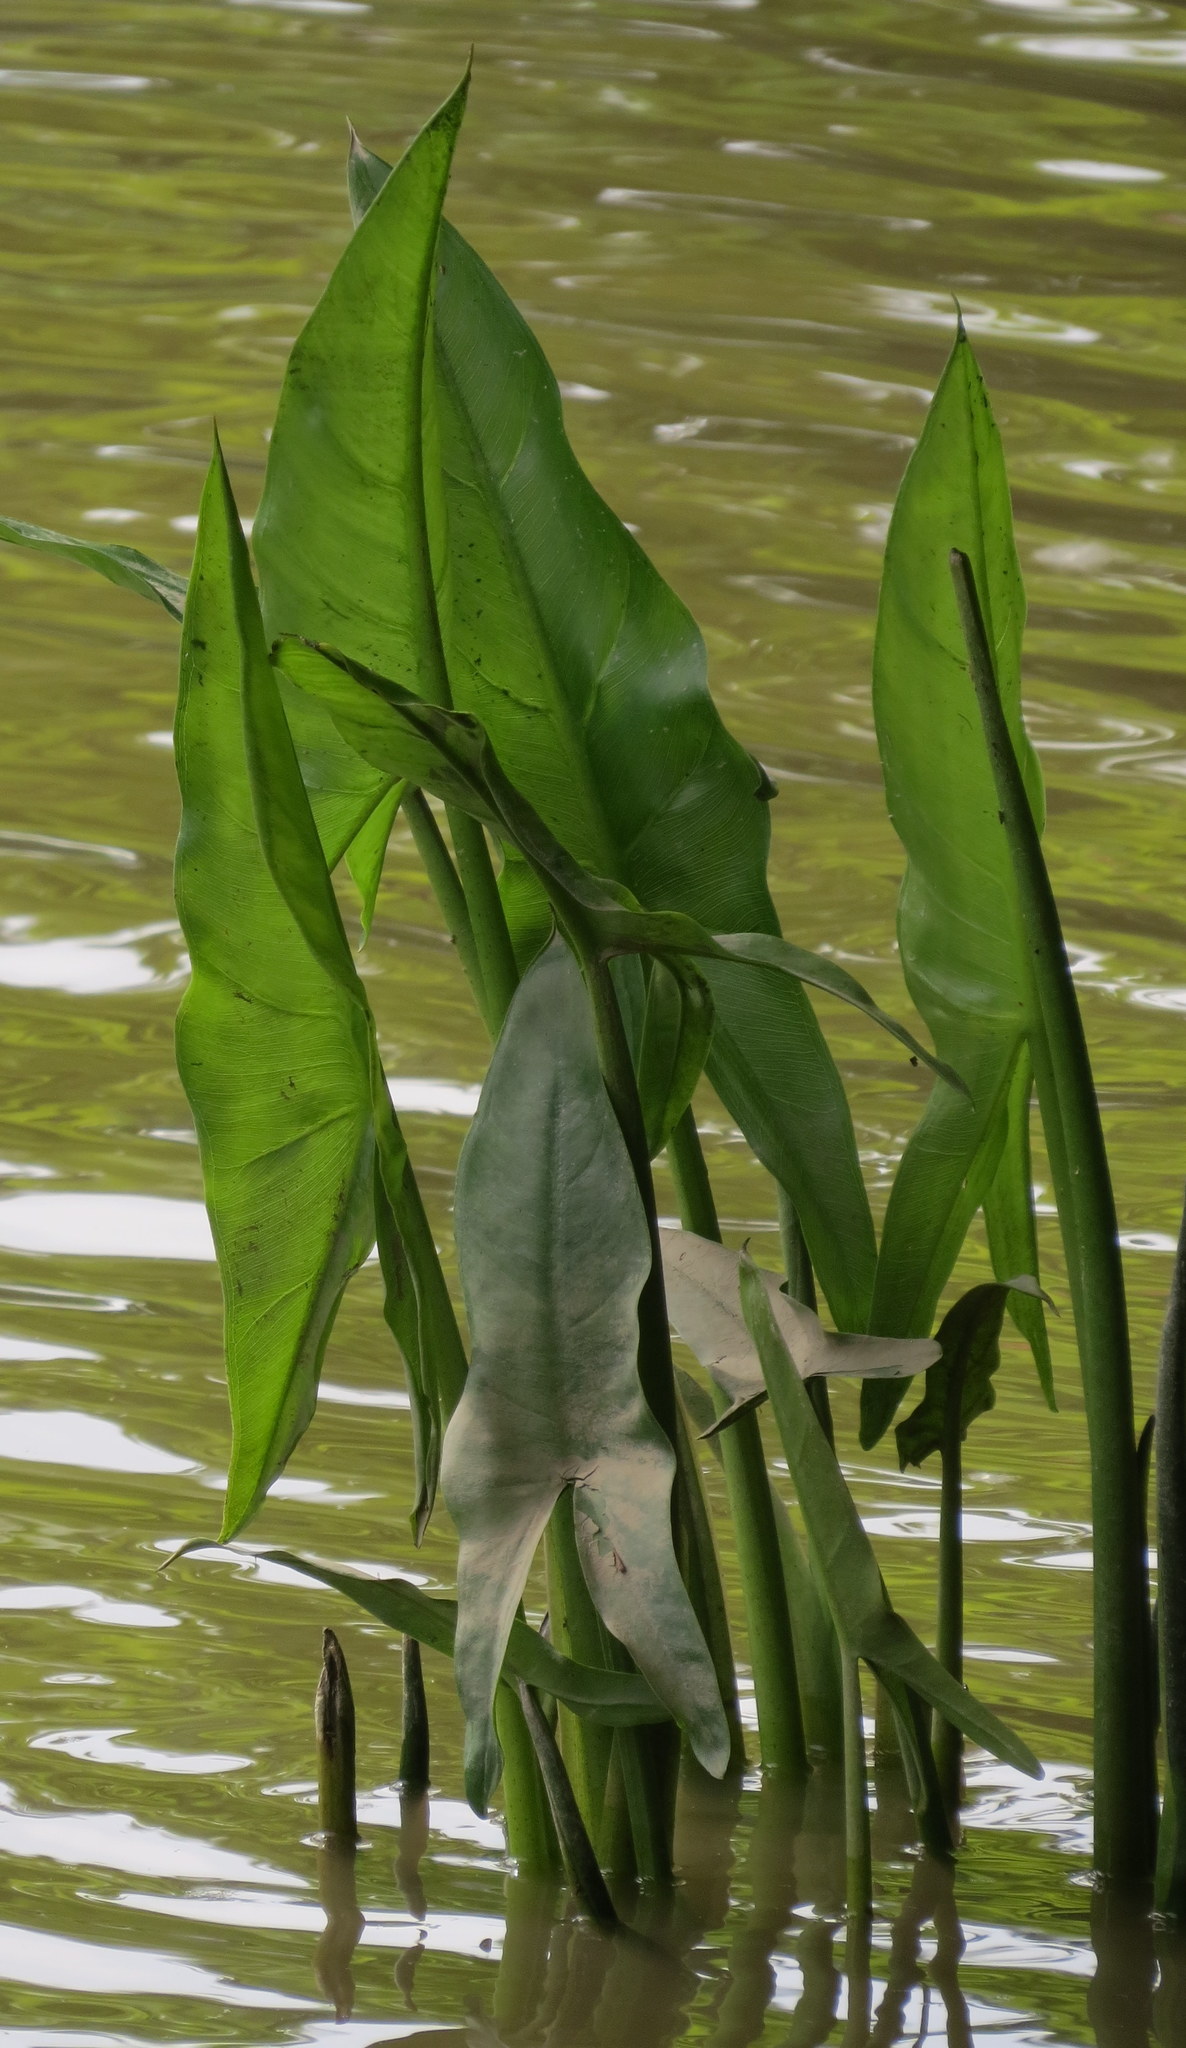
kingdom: Plantae
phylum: Tracheophyta
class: Liliopsida
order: Alismatales
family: Araceae
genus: Peltandra
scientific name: Peltandra virginica
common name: Arrow arum
